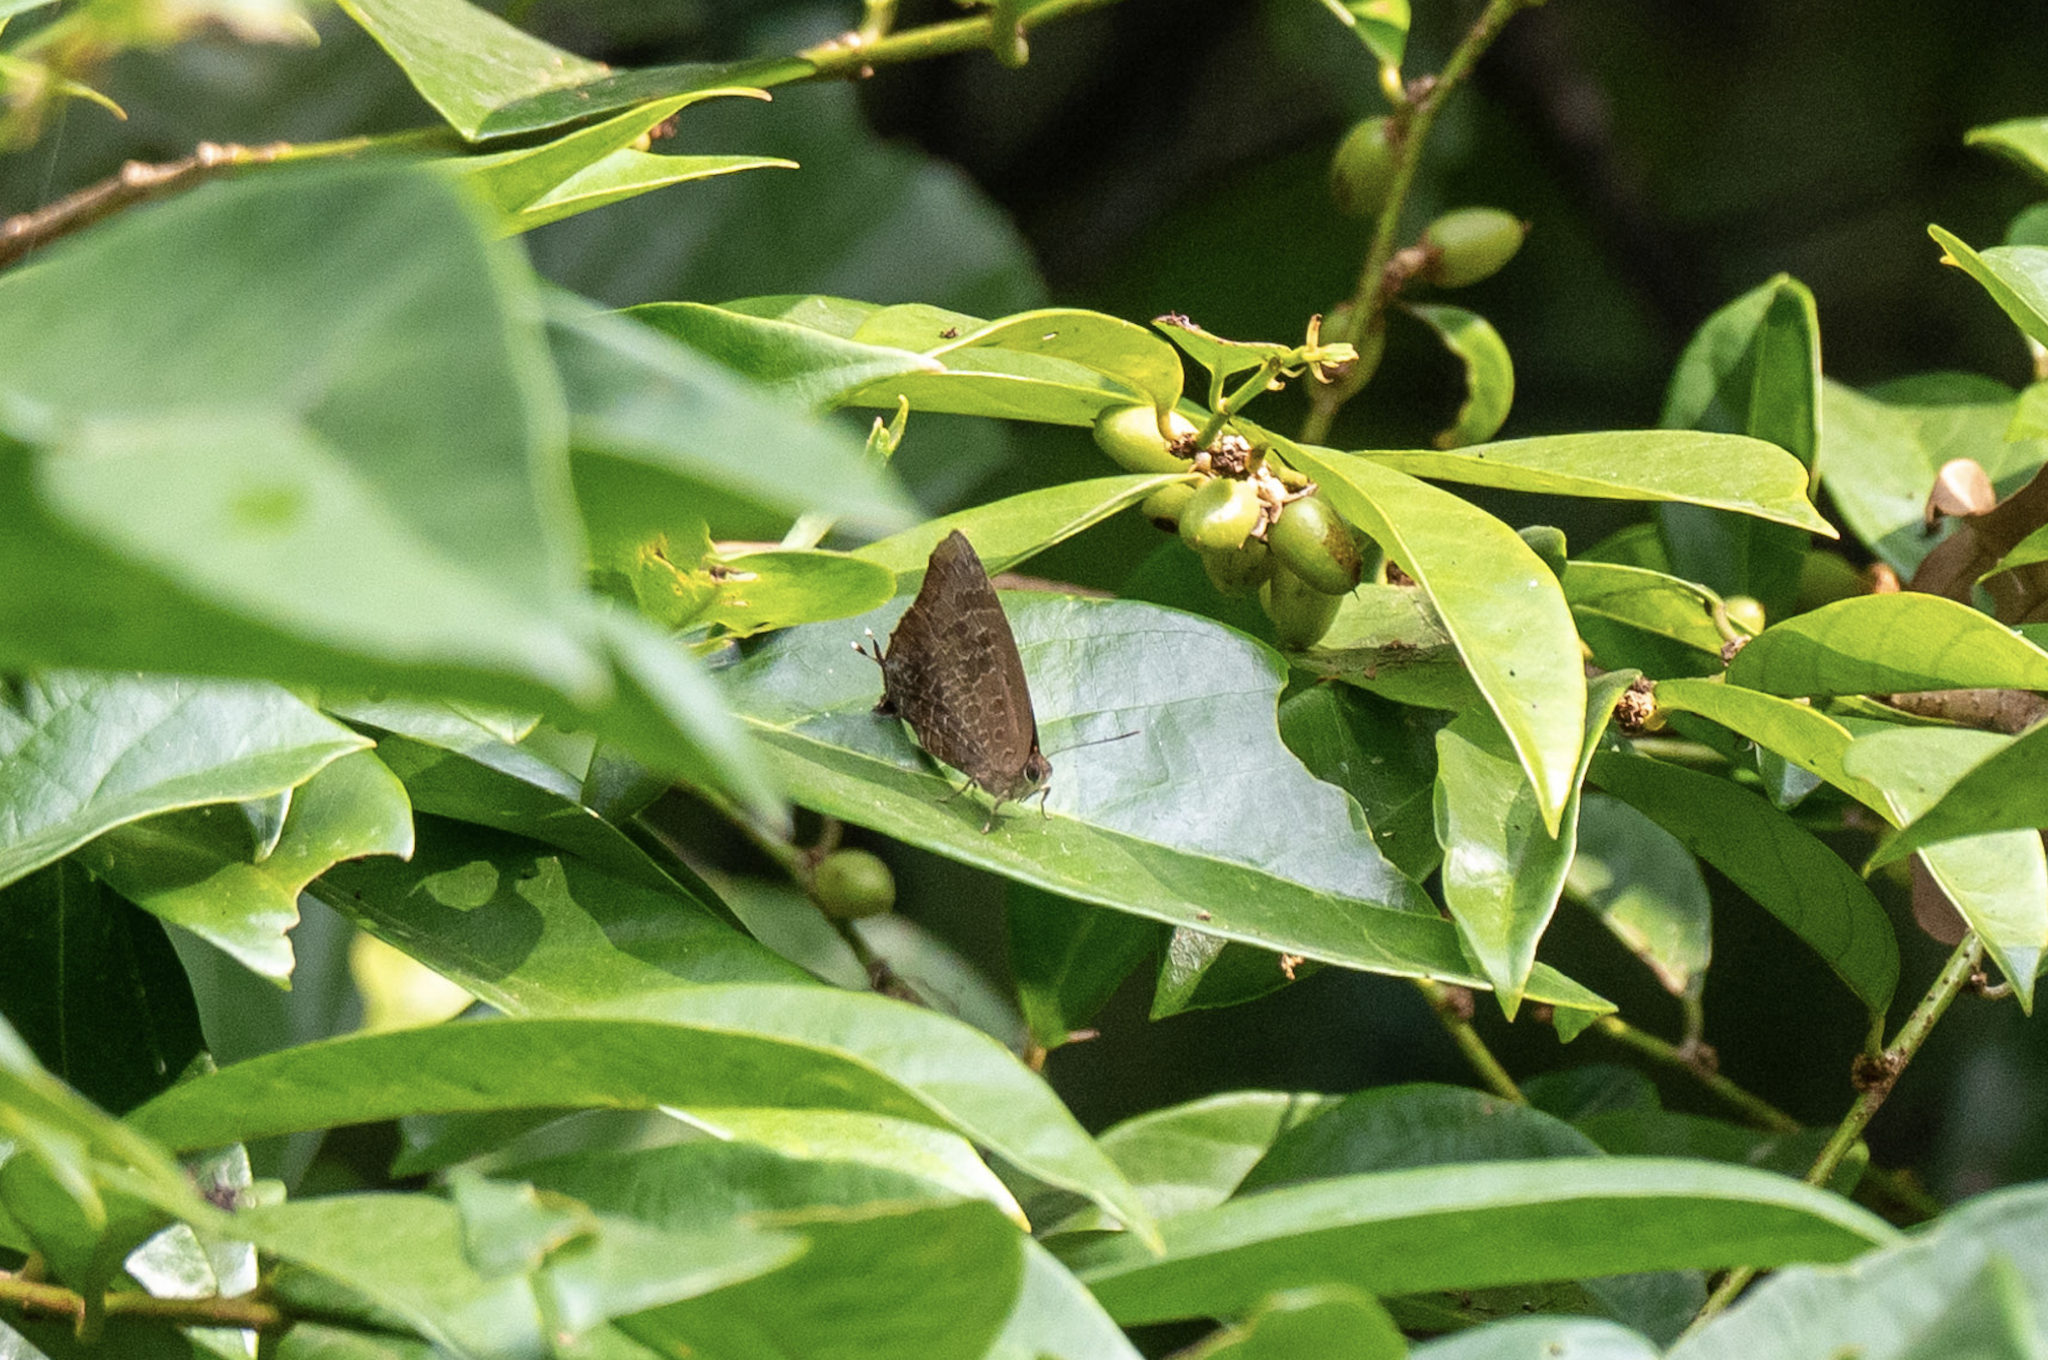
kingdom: Animalia
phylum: Arthropoda
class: Insecta
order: Lepidoptera
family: Lycaenidae
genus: Arhopala
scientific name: Arhopala bazalus
